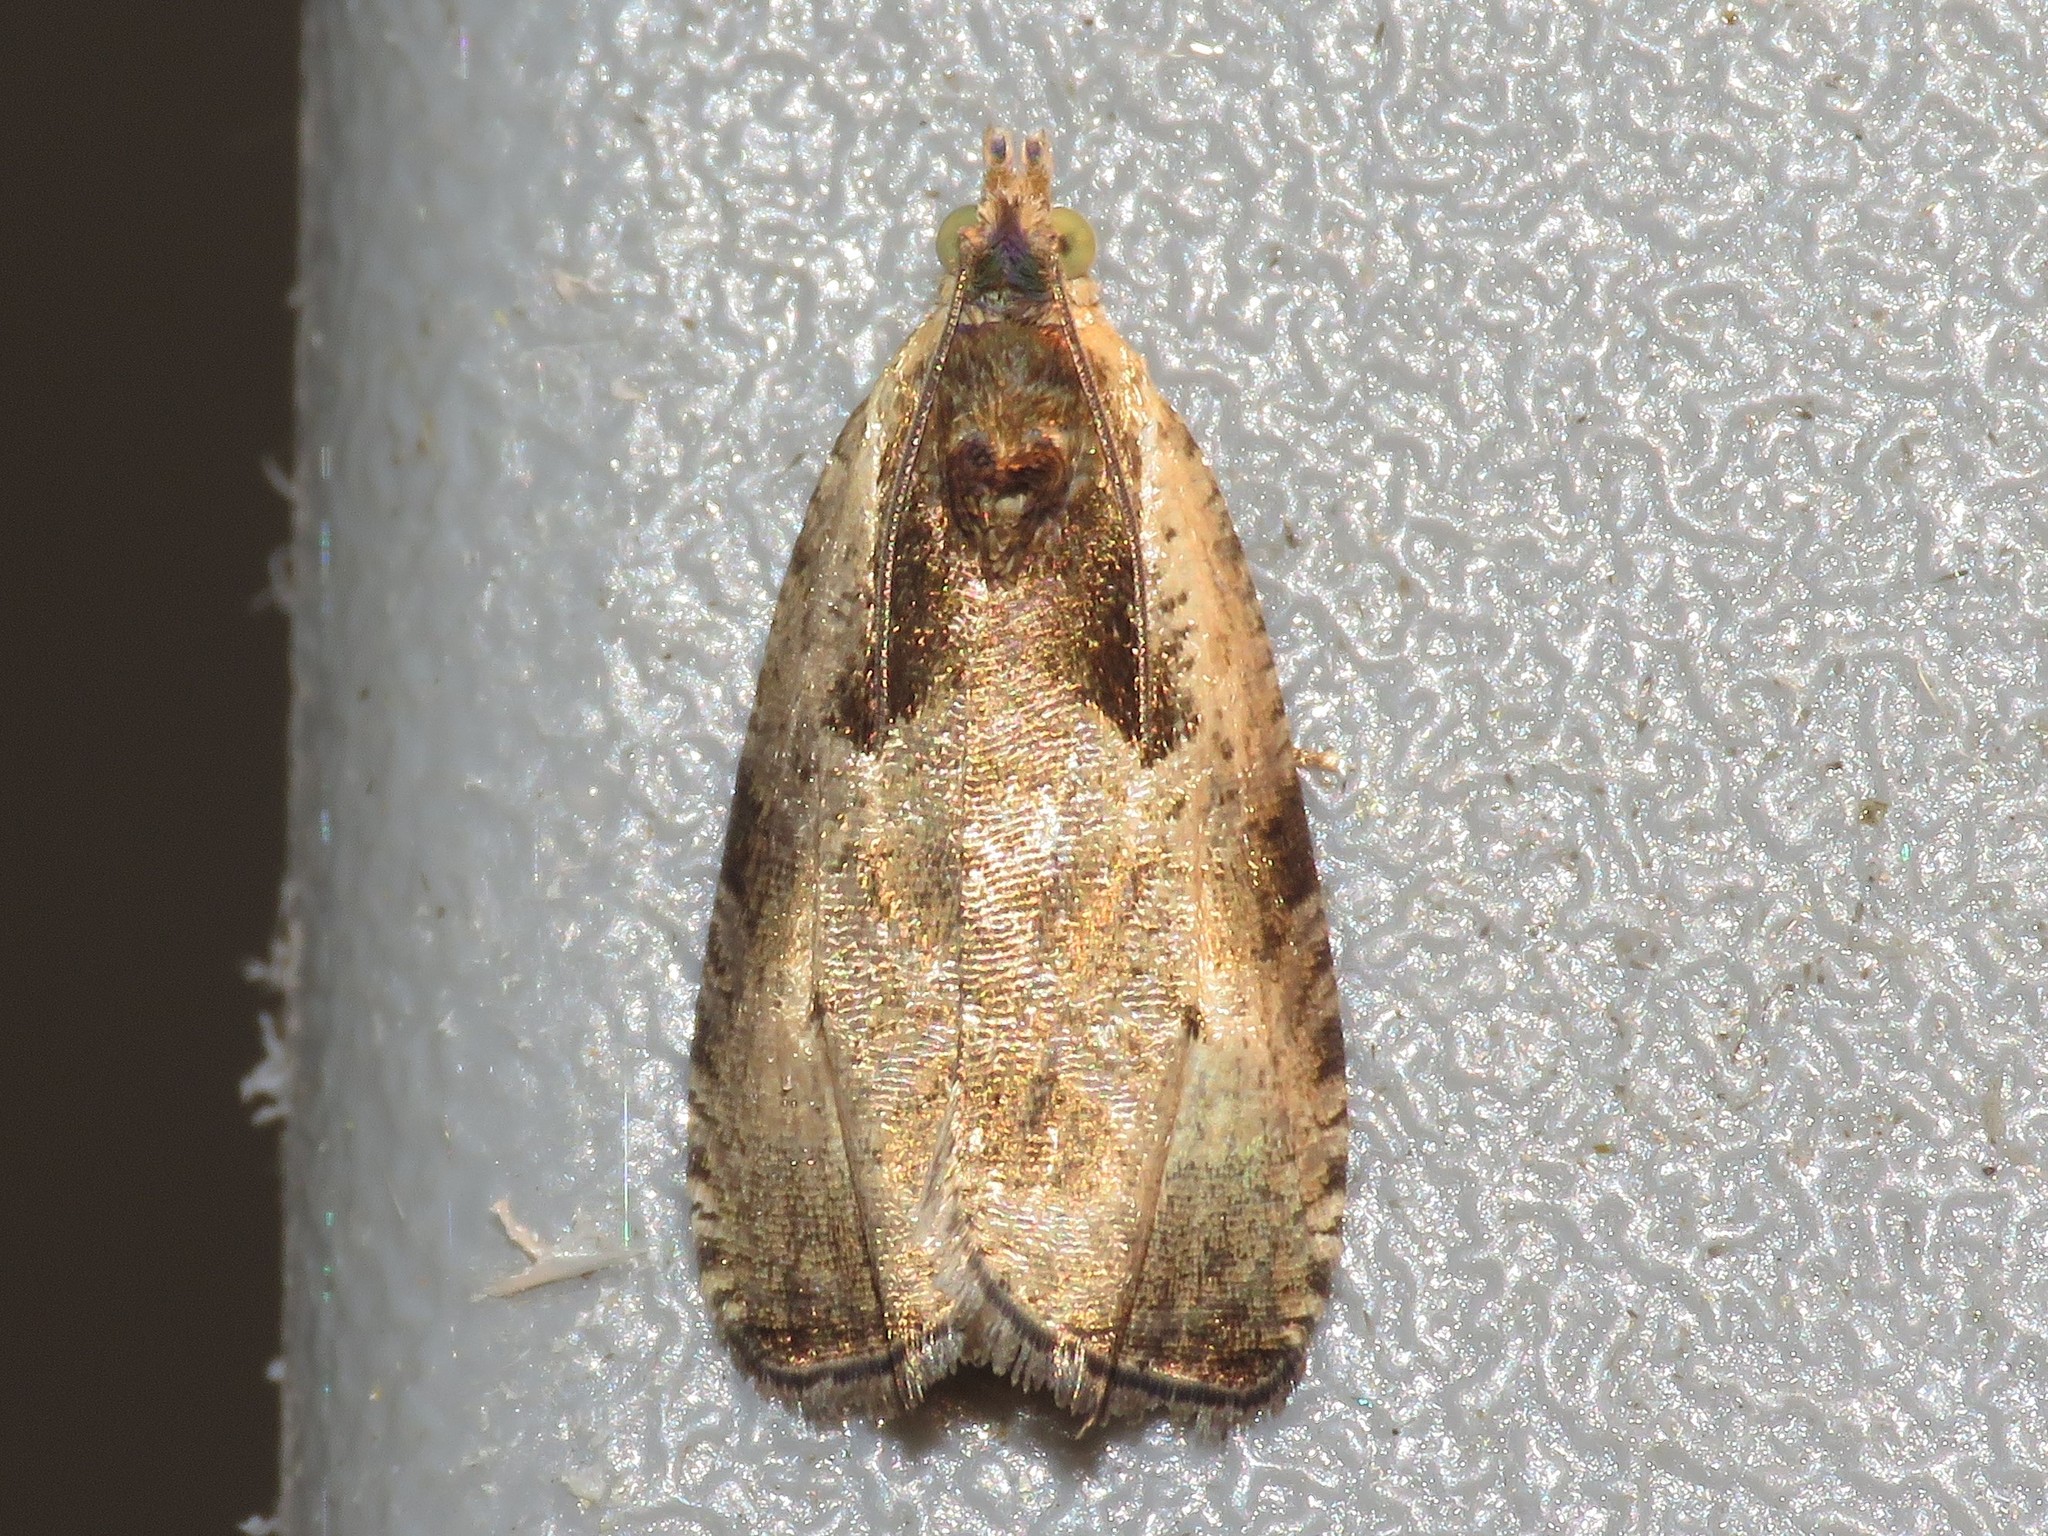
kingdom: Animalia
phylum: Arthropoda
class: Insecta
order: Lepidoptera
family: Tortricidae
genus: Olethreutes
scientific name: Olethreutes punctanum
